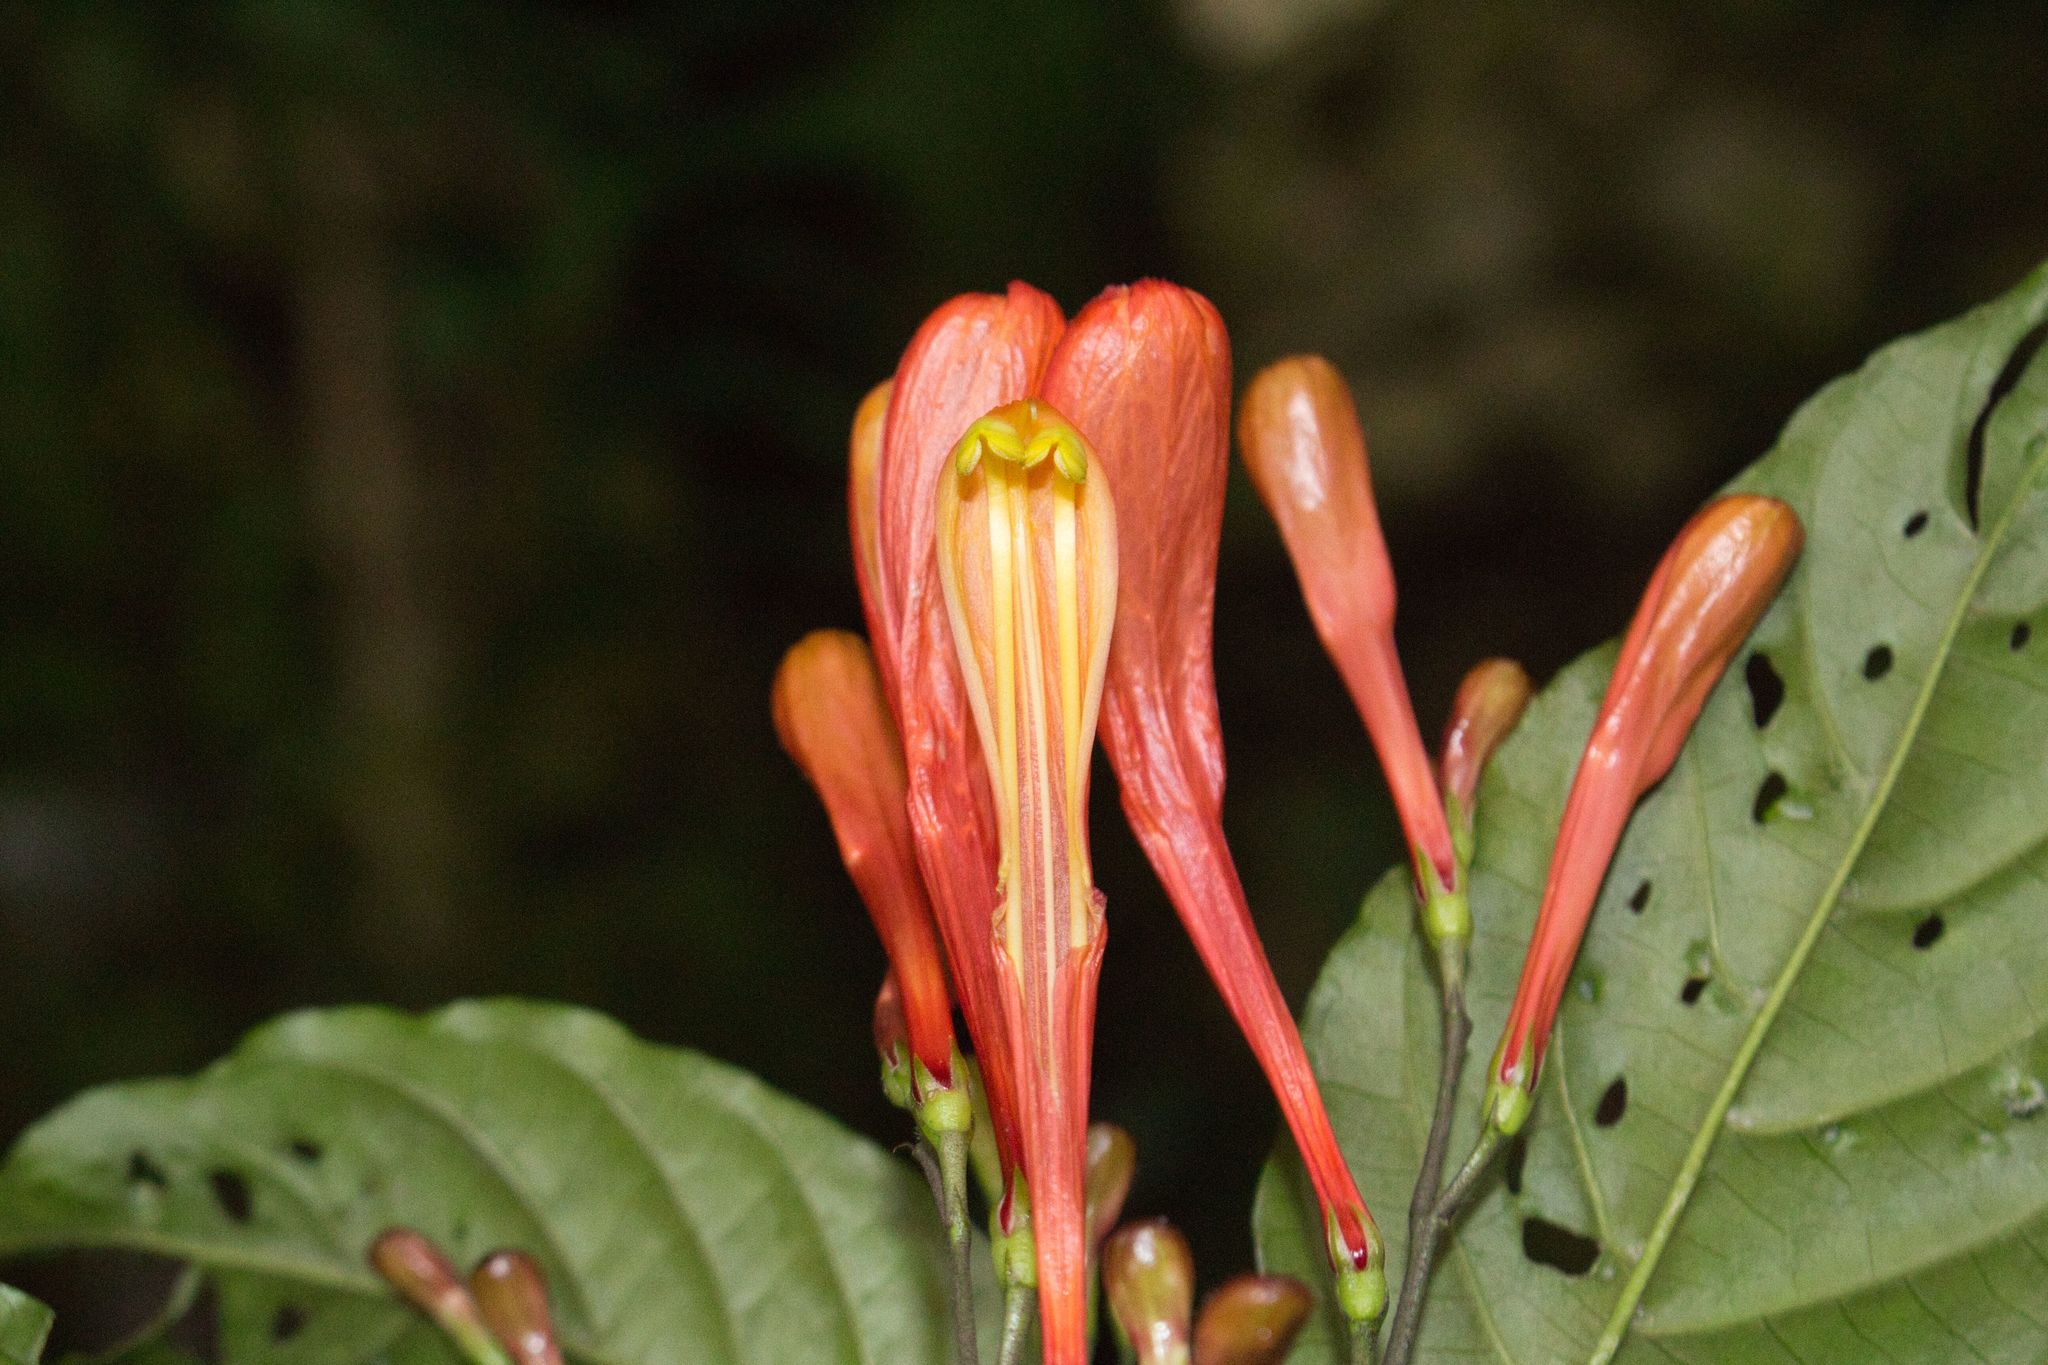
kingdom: Plantae
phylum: Tracheophyta
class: Magnoliopsida
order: Lamiales
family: Acanthaceae
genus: Justicia
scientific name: Justicia macrantha
